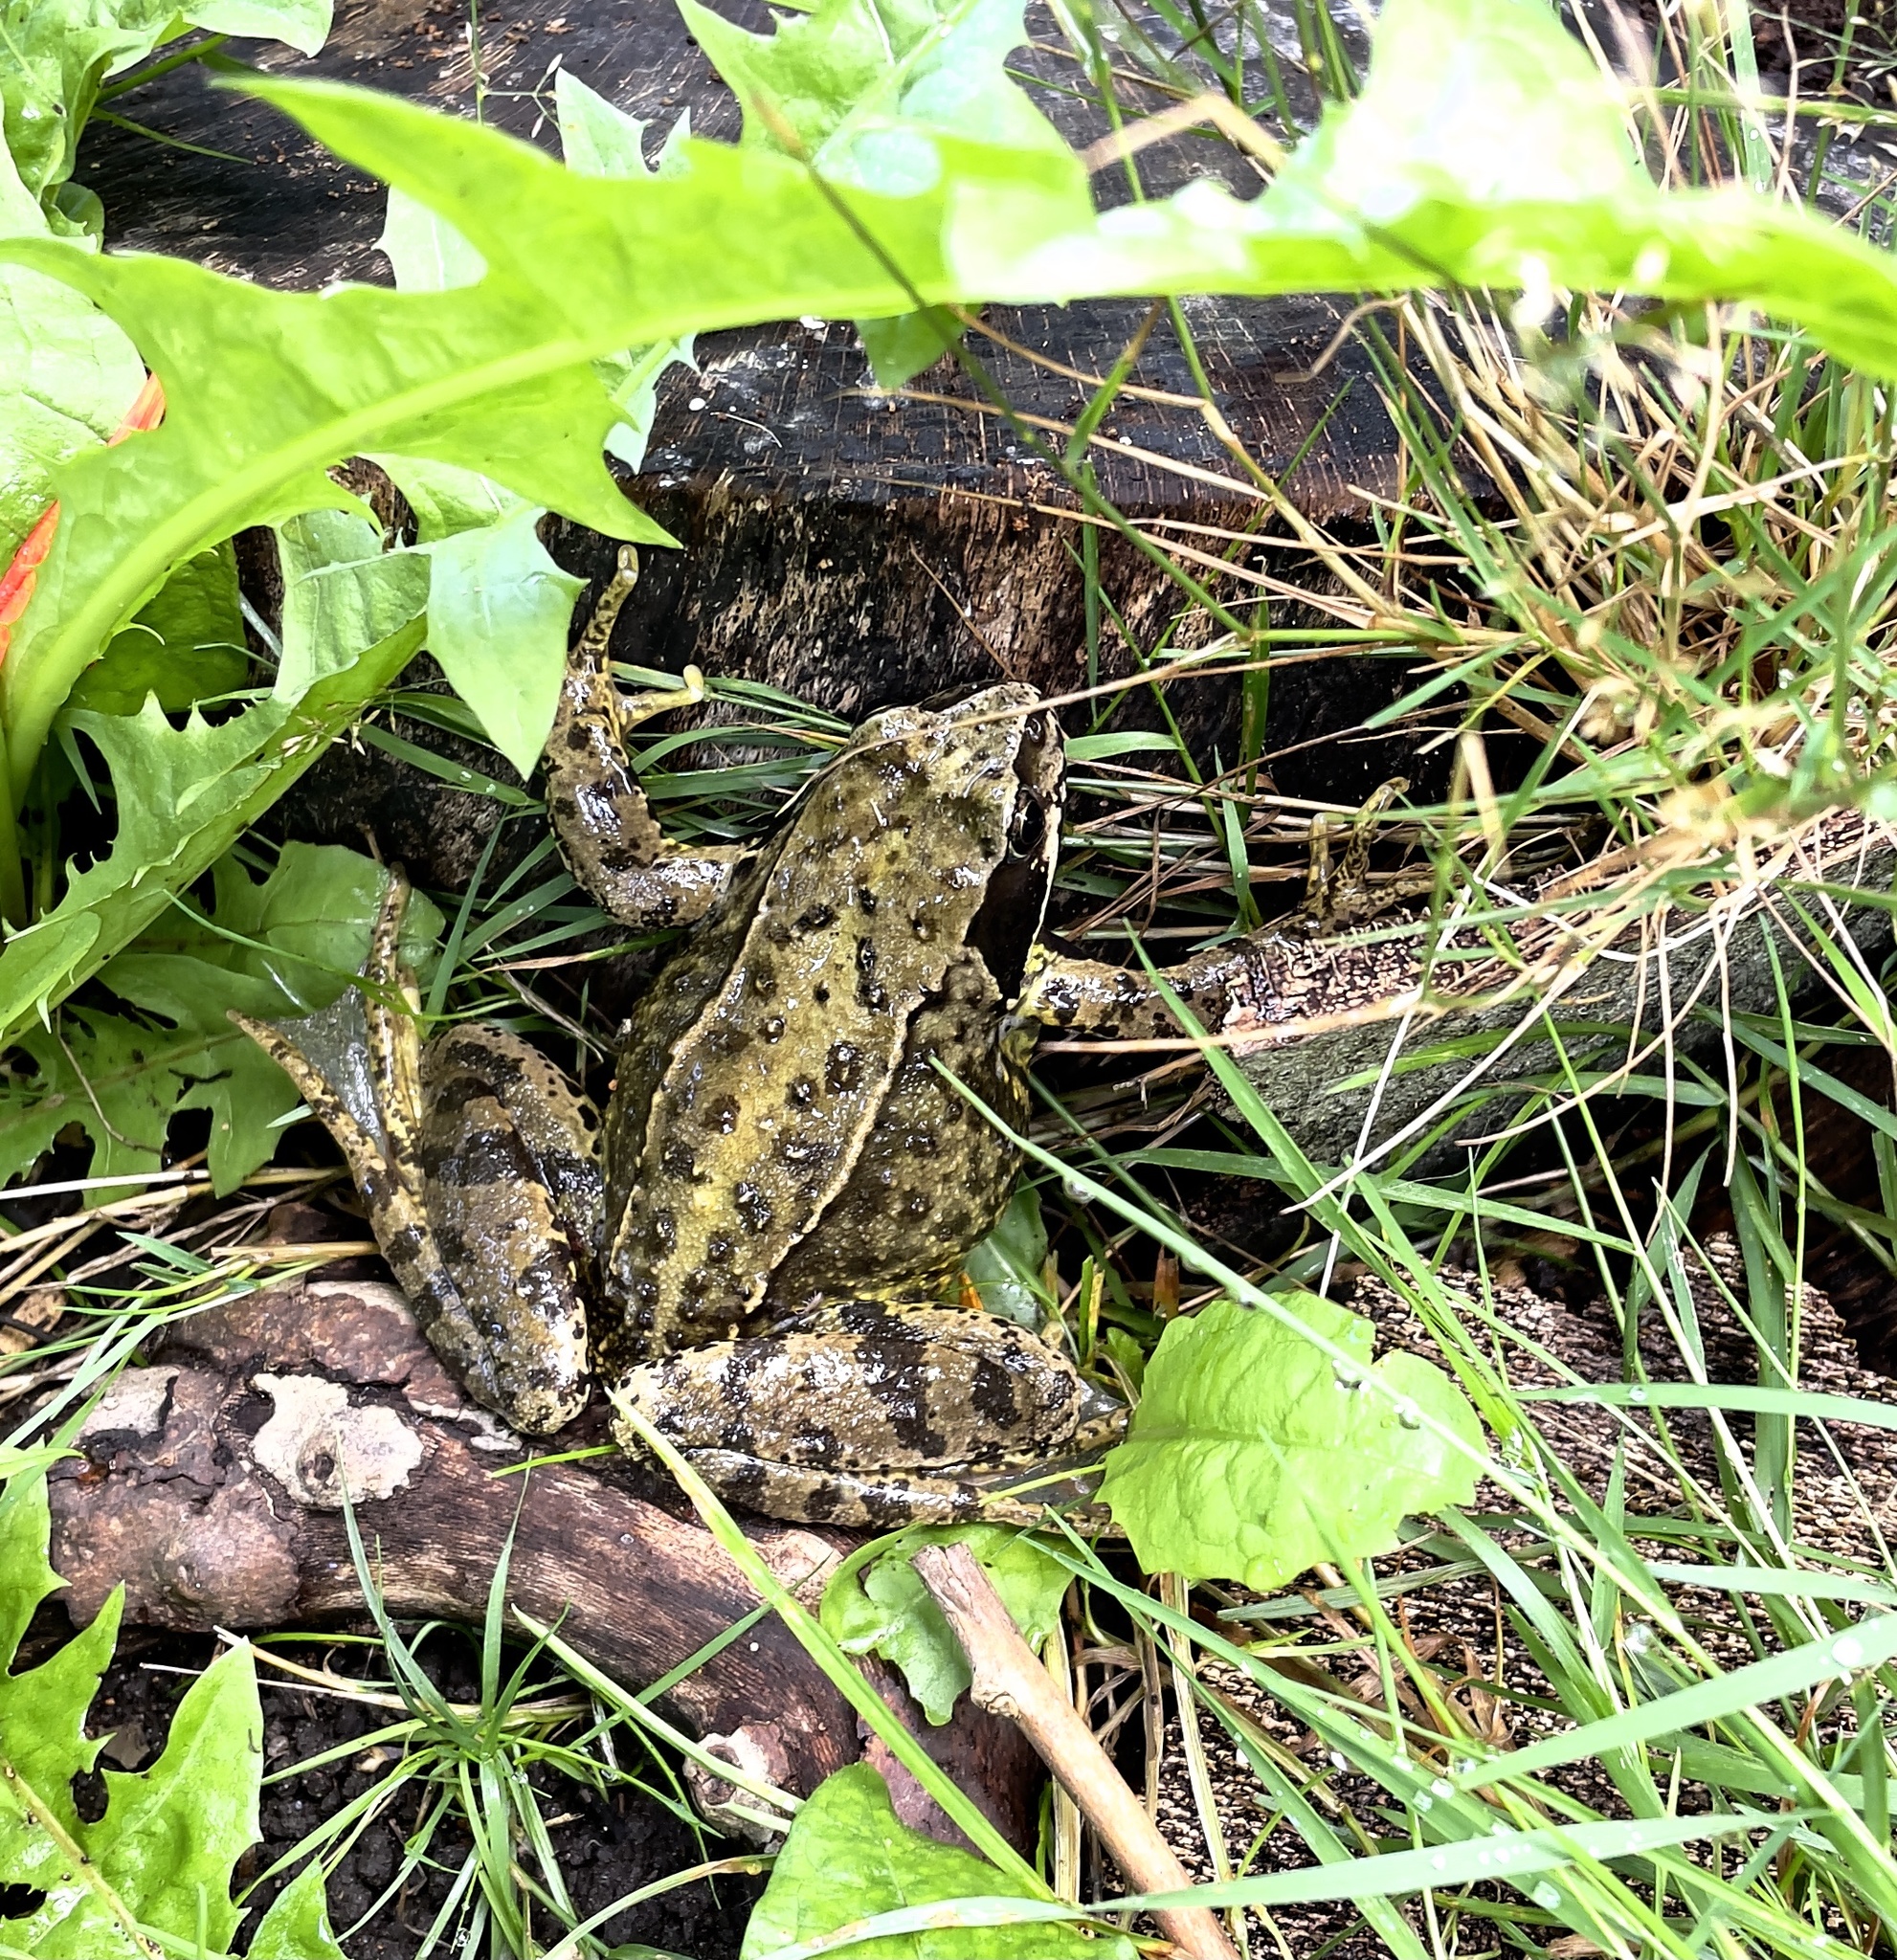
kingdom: Animalia
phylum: Chordata
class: Amphibia
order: Anura
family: Ranidae
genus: Rana
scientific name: Rana temporaria
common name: Common frog
